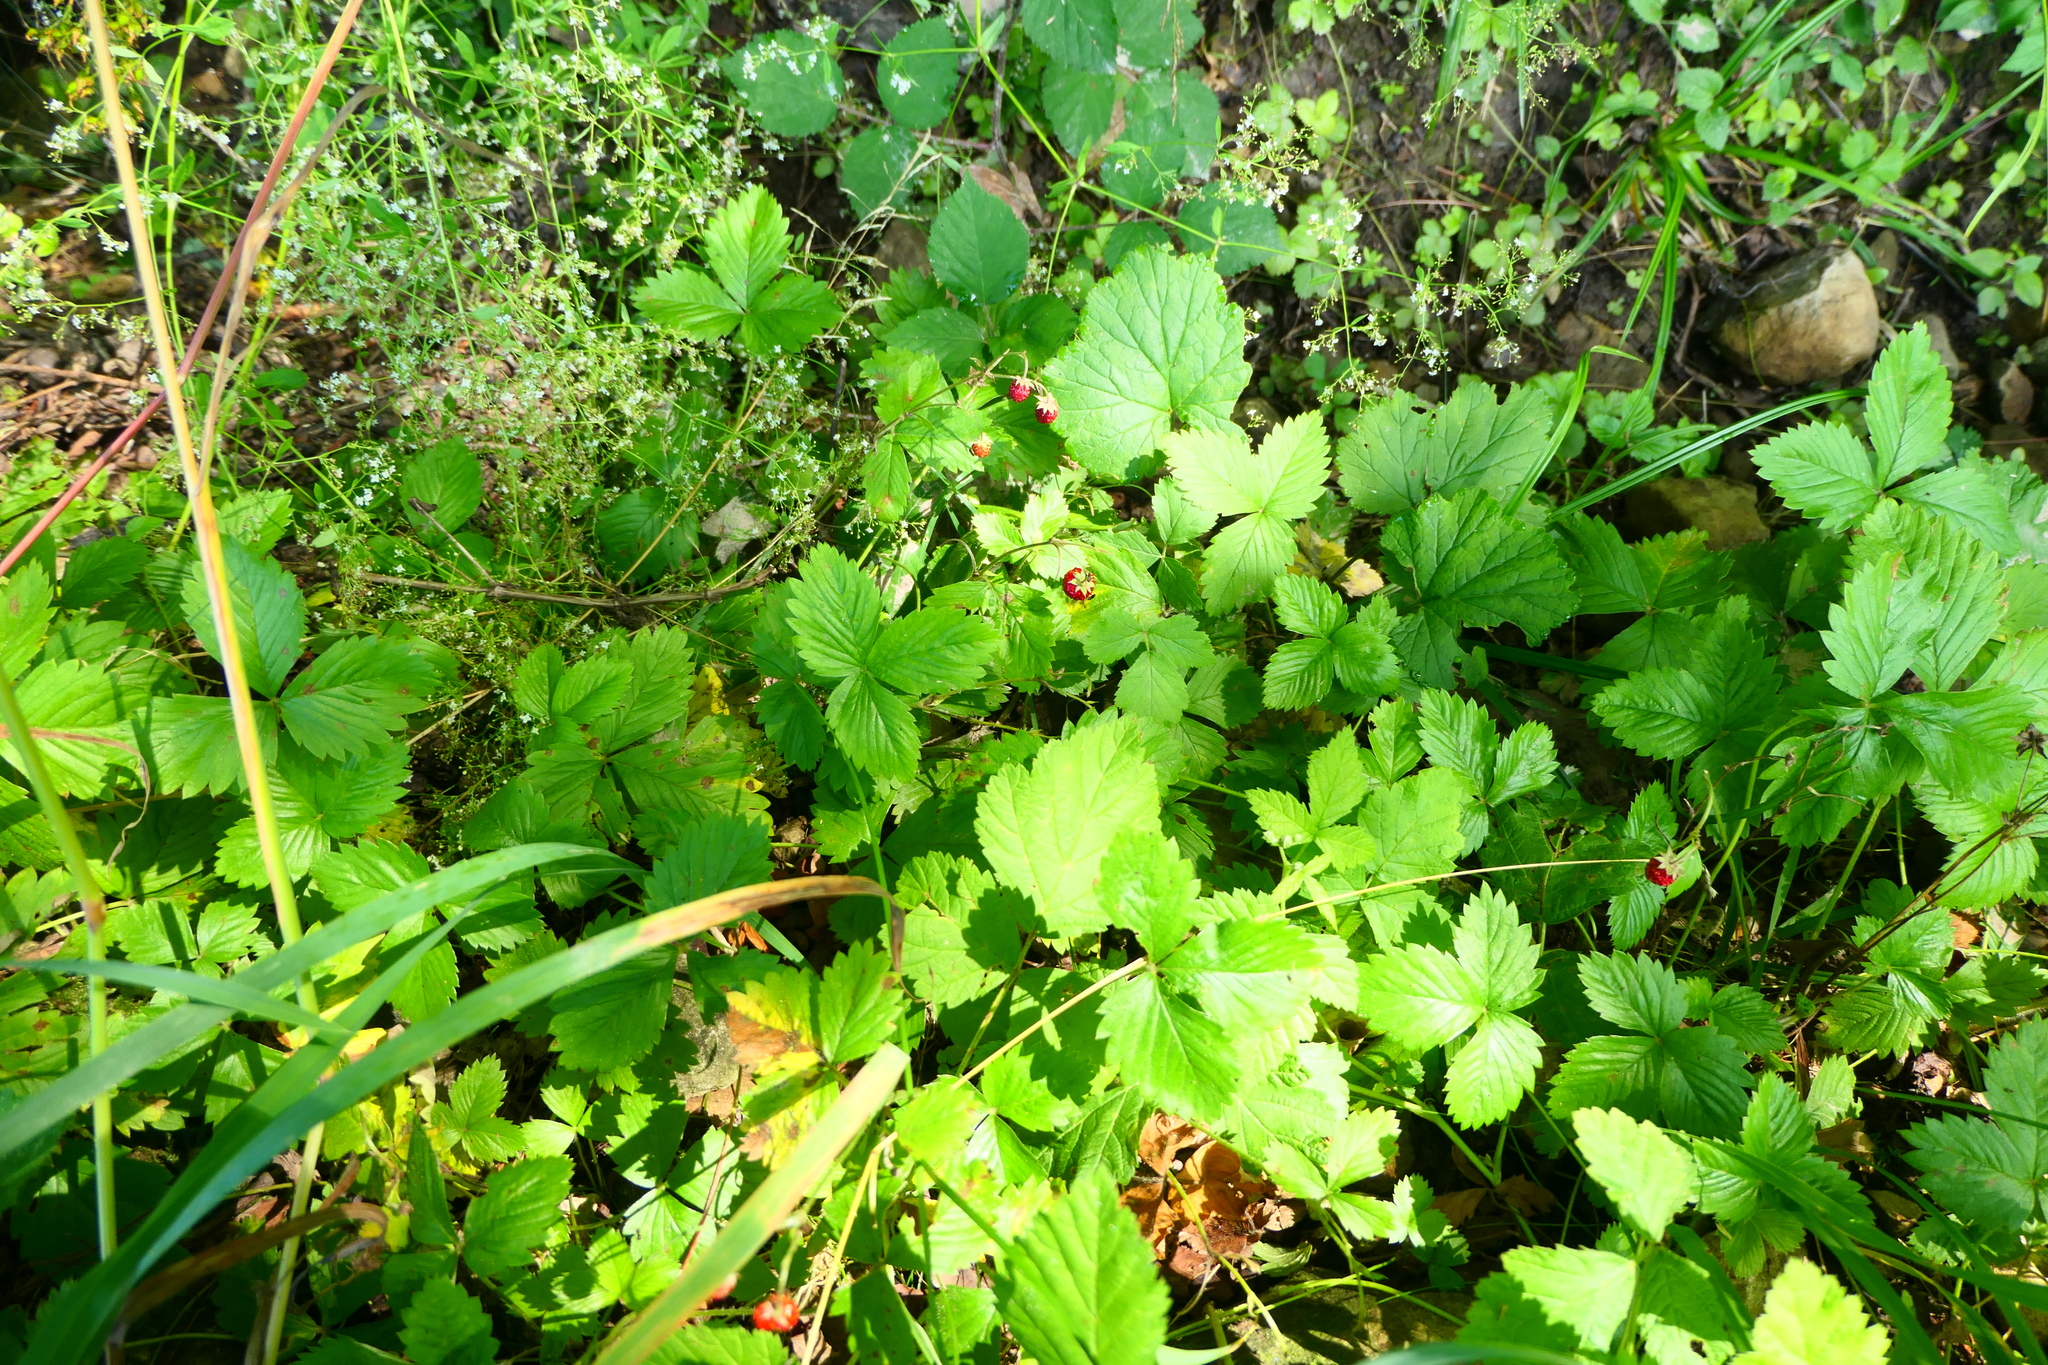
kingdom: Plantae
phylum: Tracheophyta
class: Magnoliopsida
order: Rosales
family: Rosaceae
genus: Fragaria
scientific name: Fragaria vesca
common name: Wild strawberry
